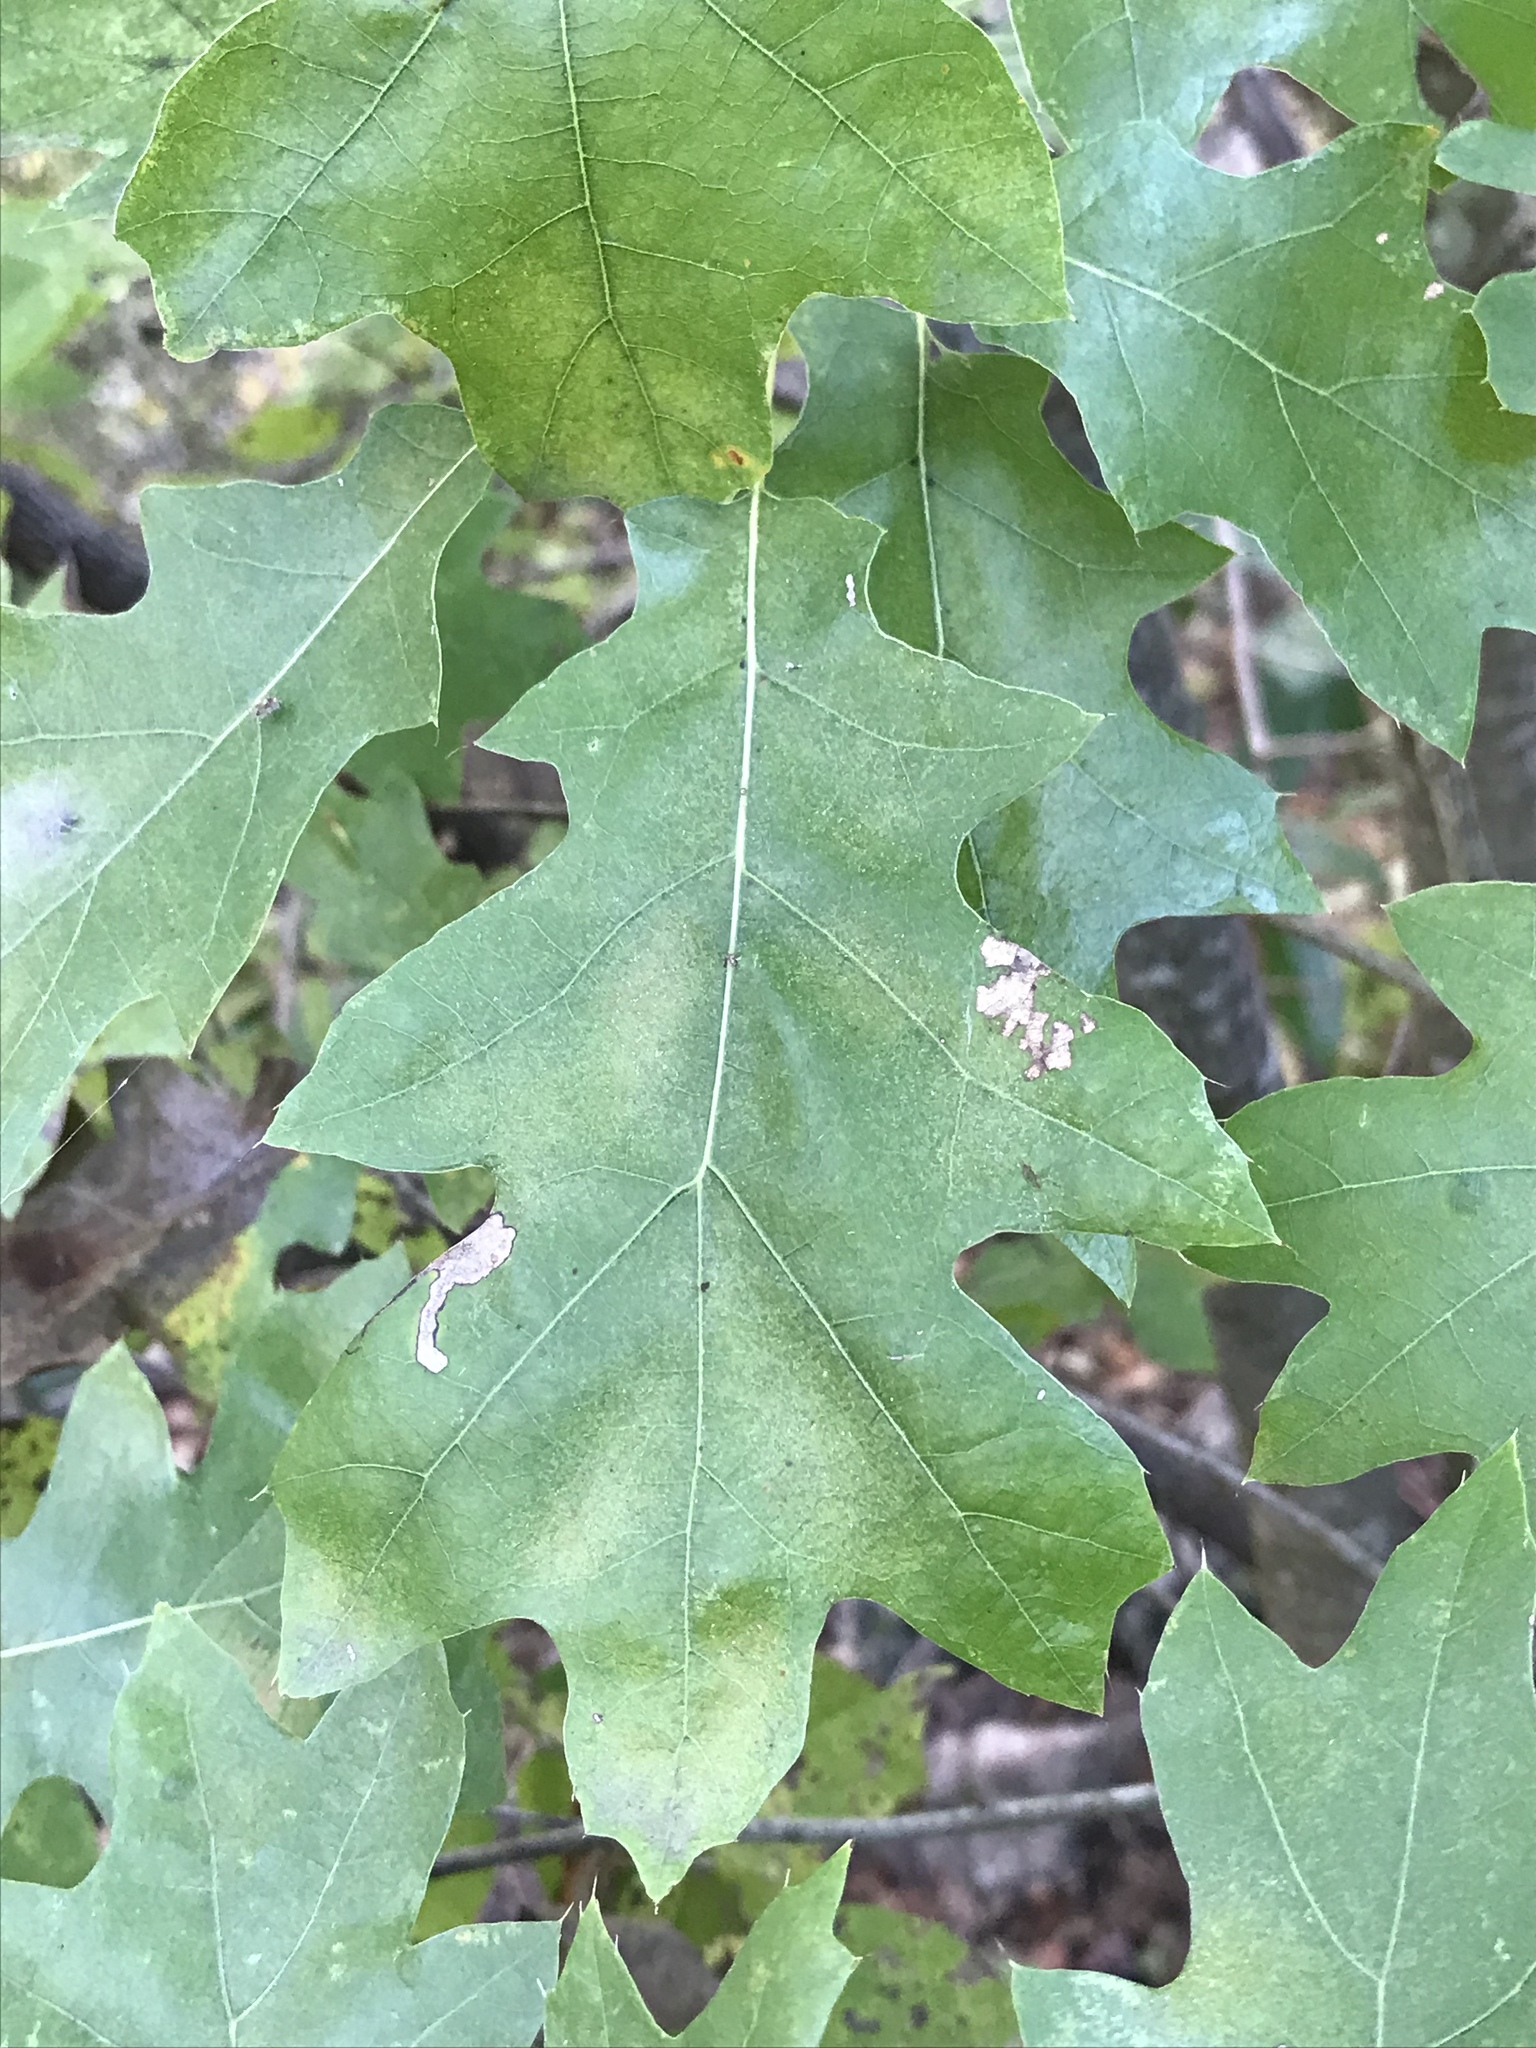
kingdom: Plantae
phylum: Tracheophyta
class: Magnoliopsida
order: Fagales
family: Fagaceae
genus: Quercus
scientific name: Quercus buckleyi
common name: Buckley oak
